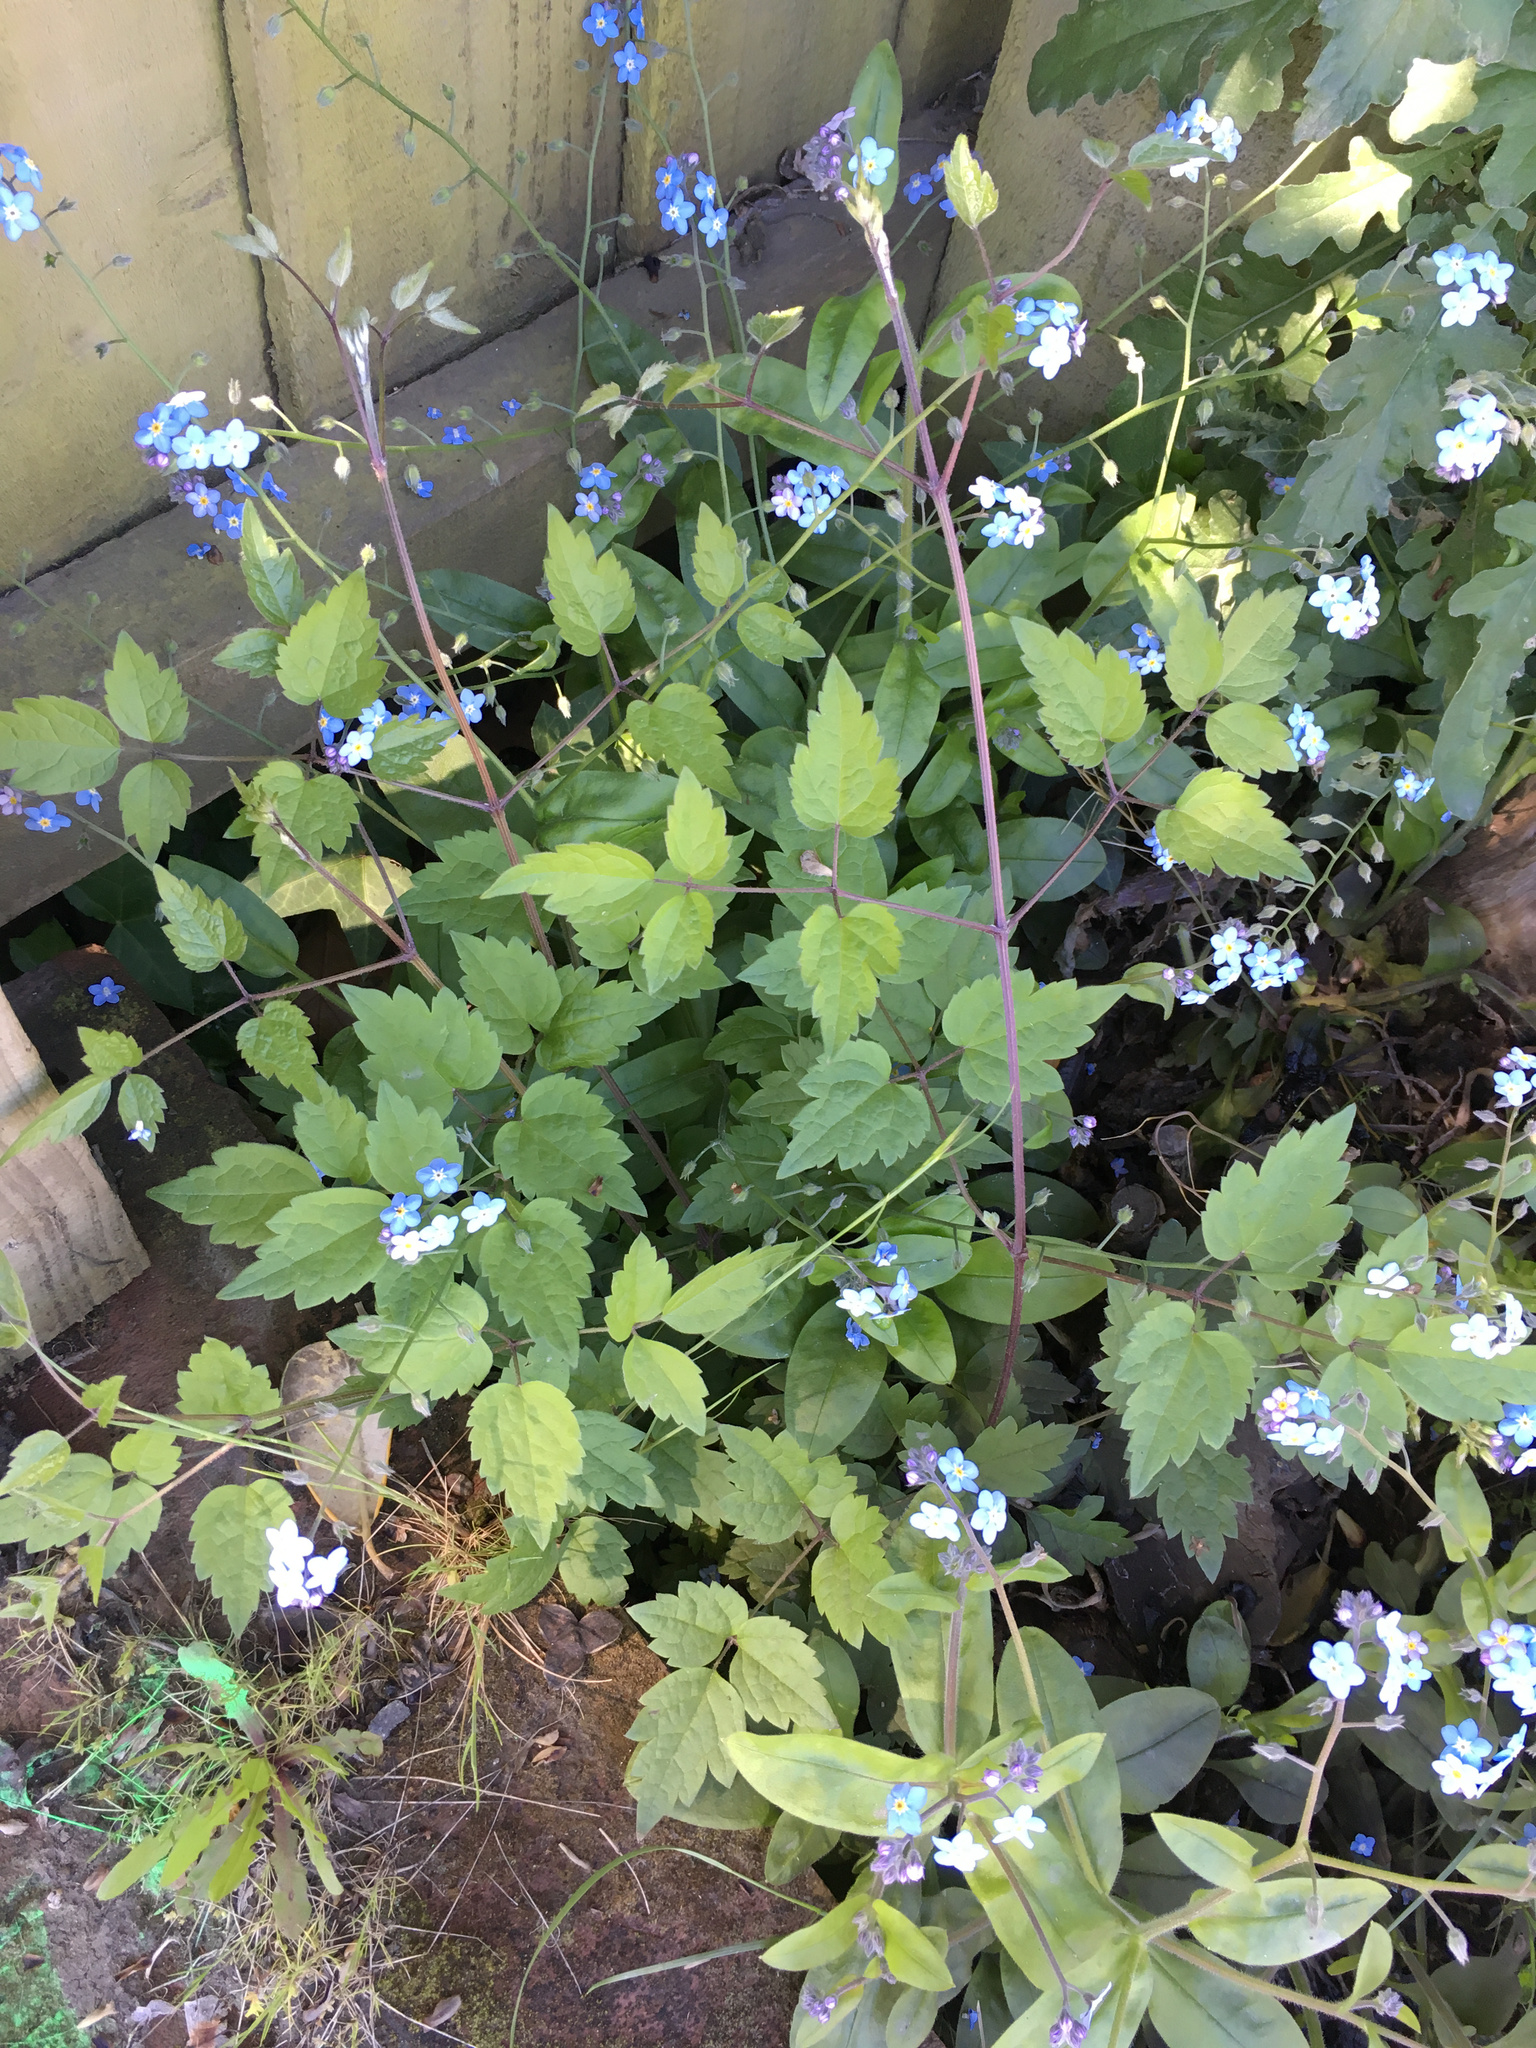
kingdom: Plantae
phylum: Tracheophyta
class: Magnoliopsida
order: Ranunculales
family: Ranunculaceae
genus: Clematis
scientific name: Clematis vitalba
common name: Evergreen clematis
